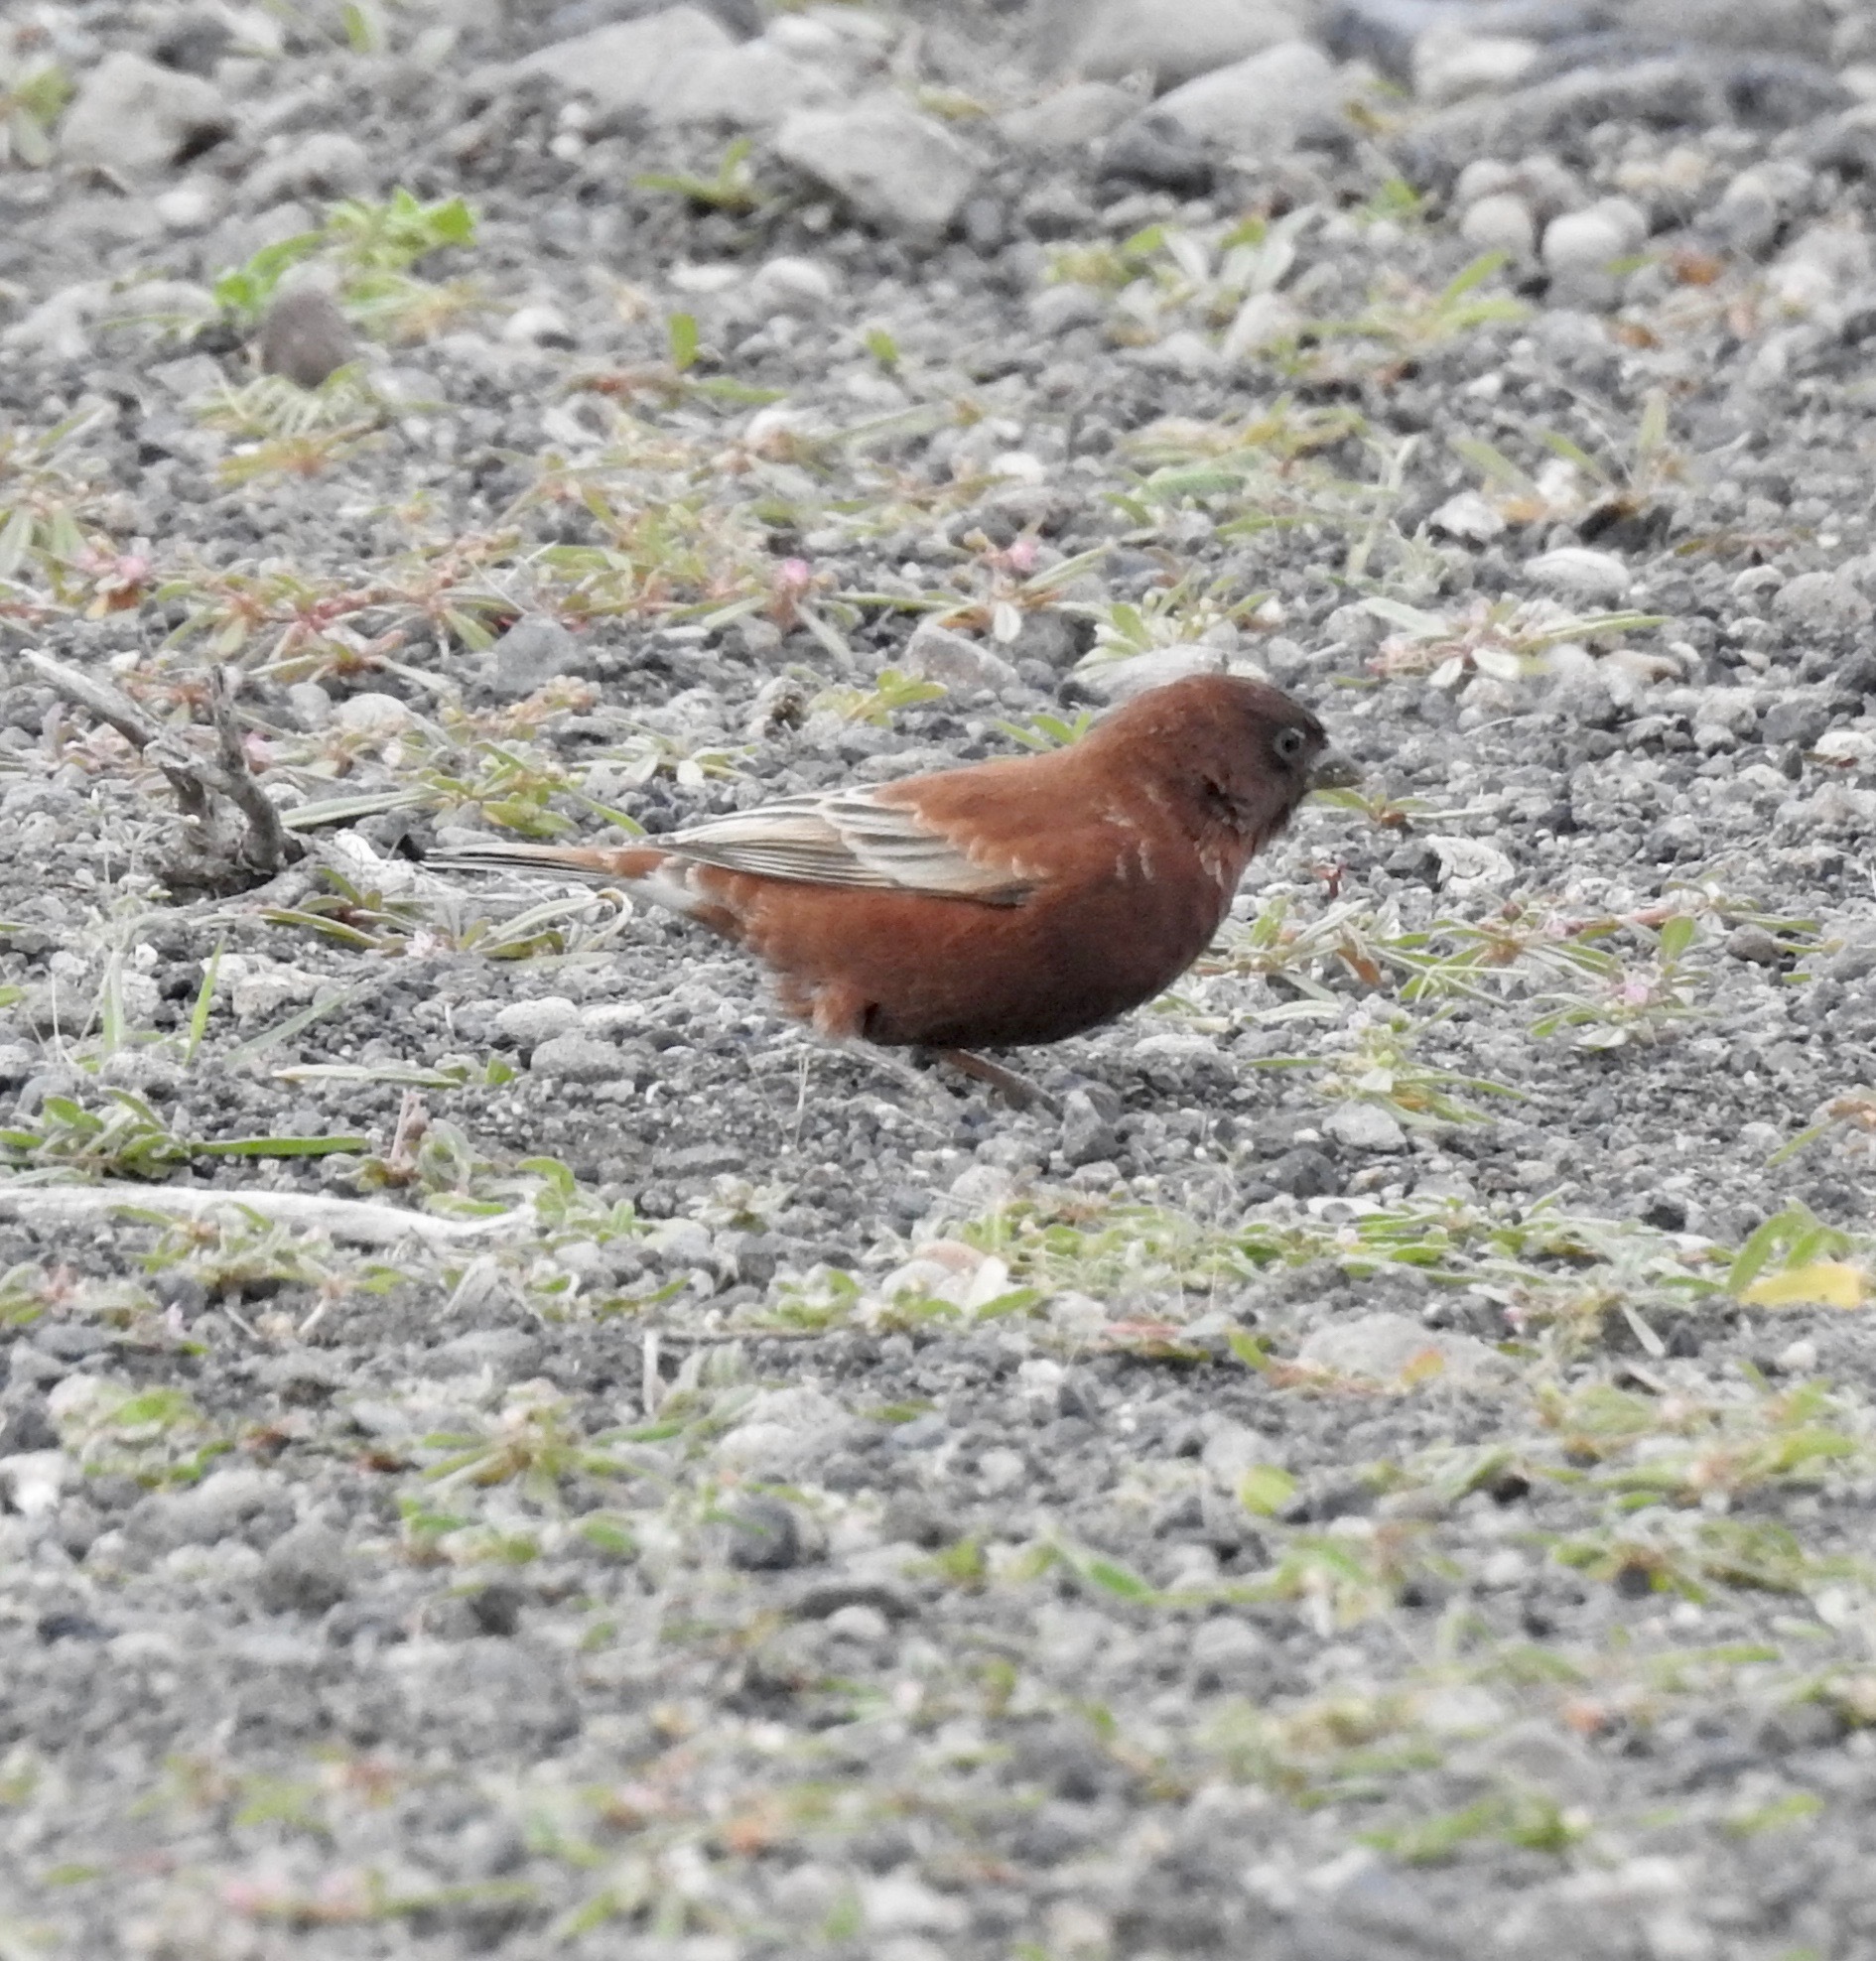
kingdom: Animalia
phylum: Chordata
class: Aves
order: Passeriformes
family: Passeridae
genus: Passer
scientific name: Passer eminibey
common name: Chestnut sparrow
